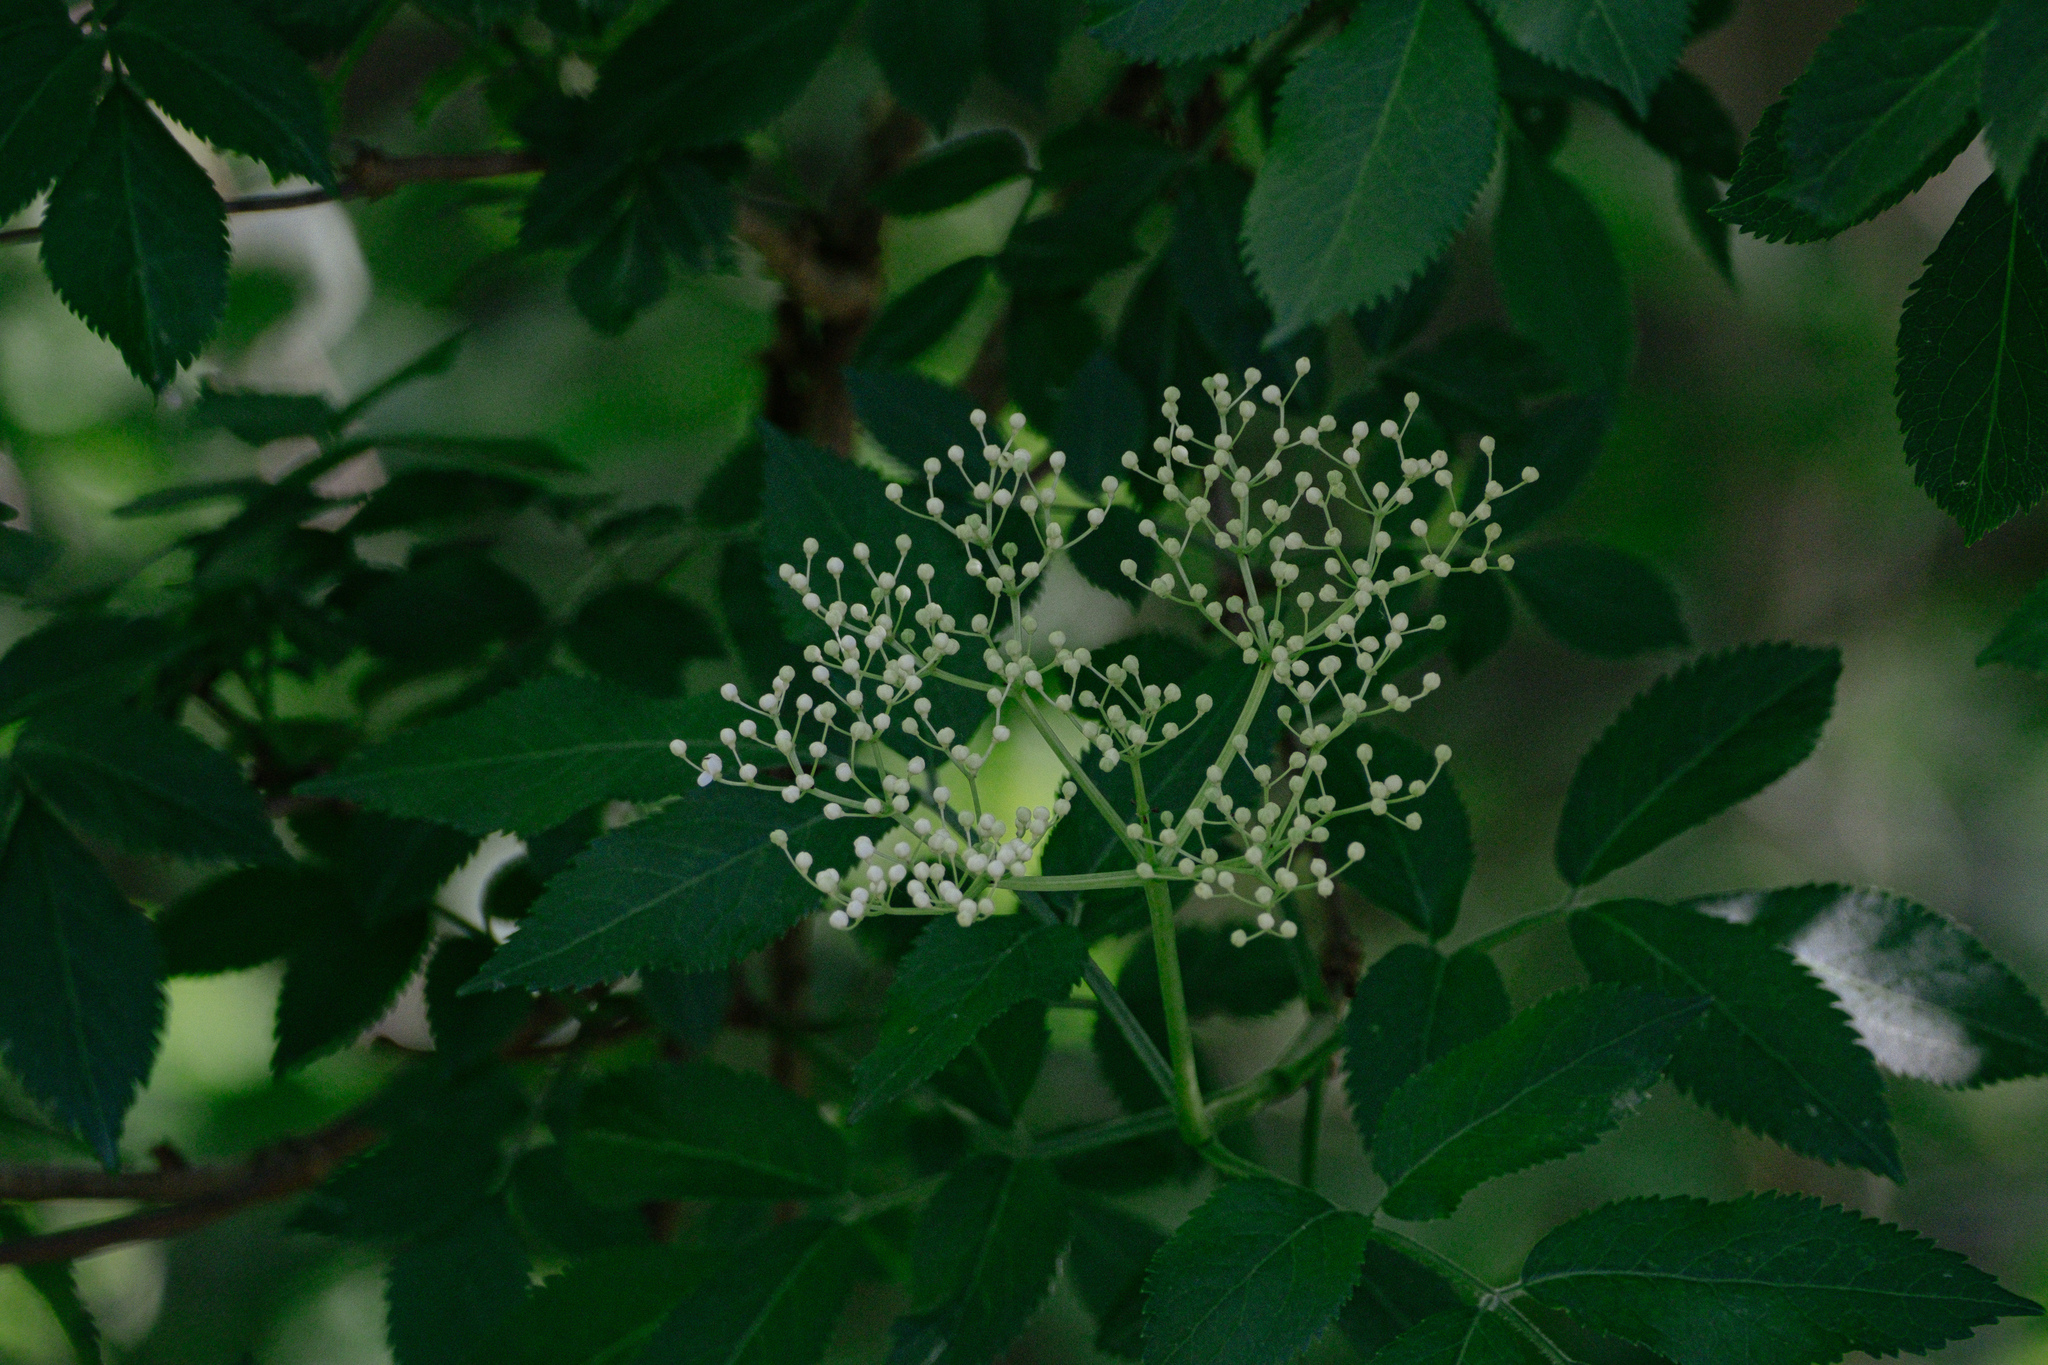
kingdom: Plantae
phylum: Tracheophyta
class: Magnoliopsida
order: Dipsacales
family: Viburnaceae
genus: Sambucus
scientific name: Sambucus nigra
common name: Elder
